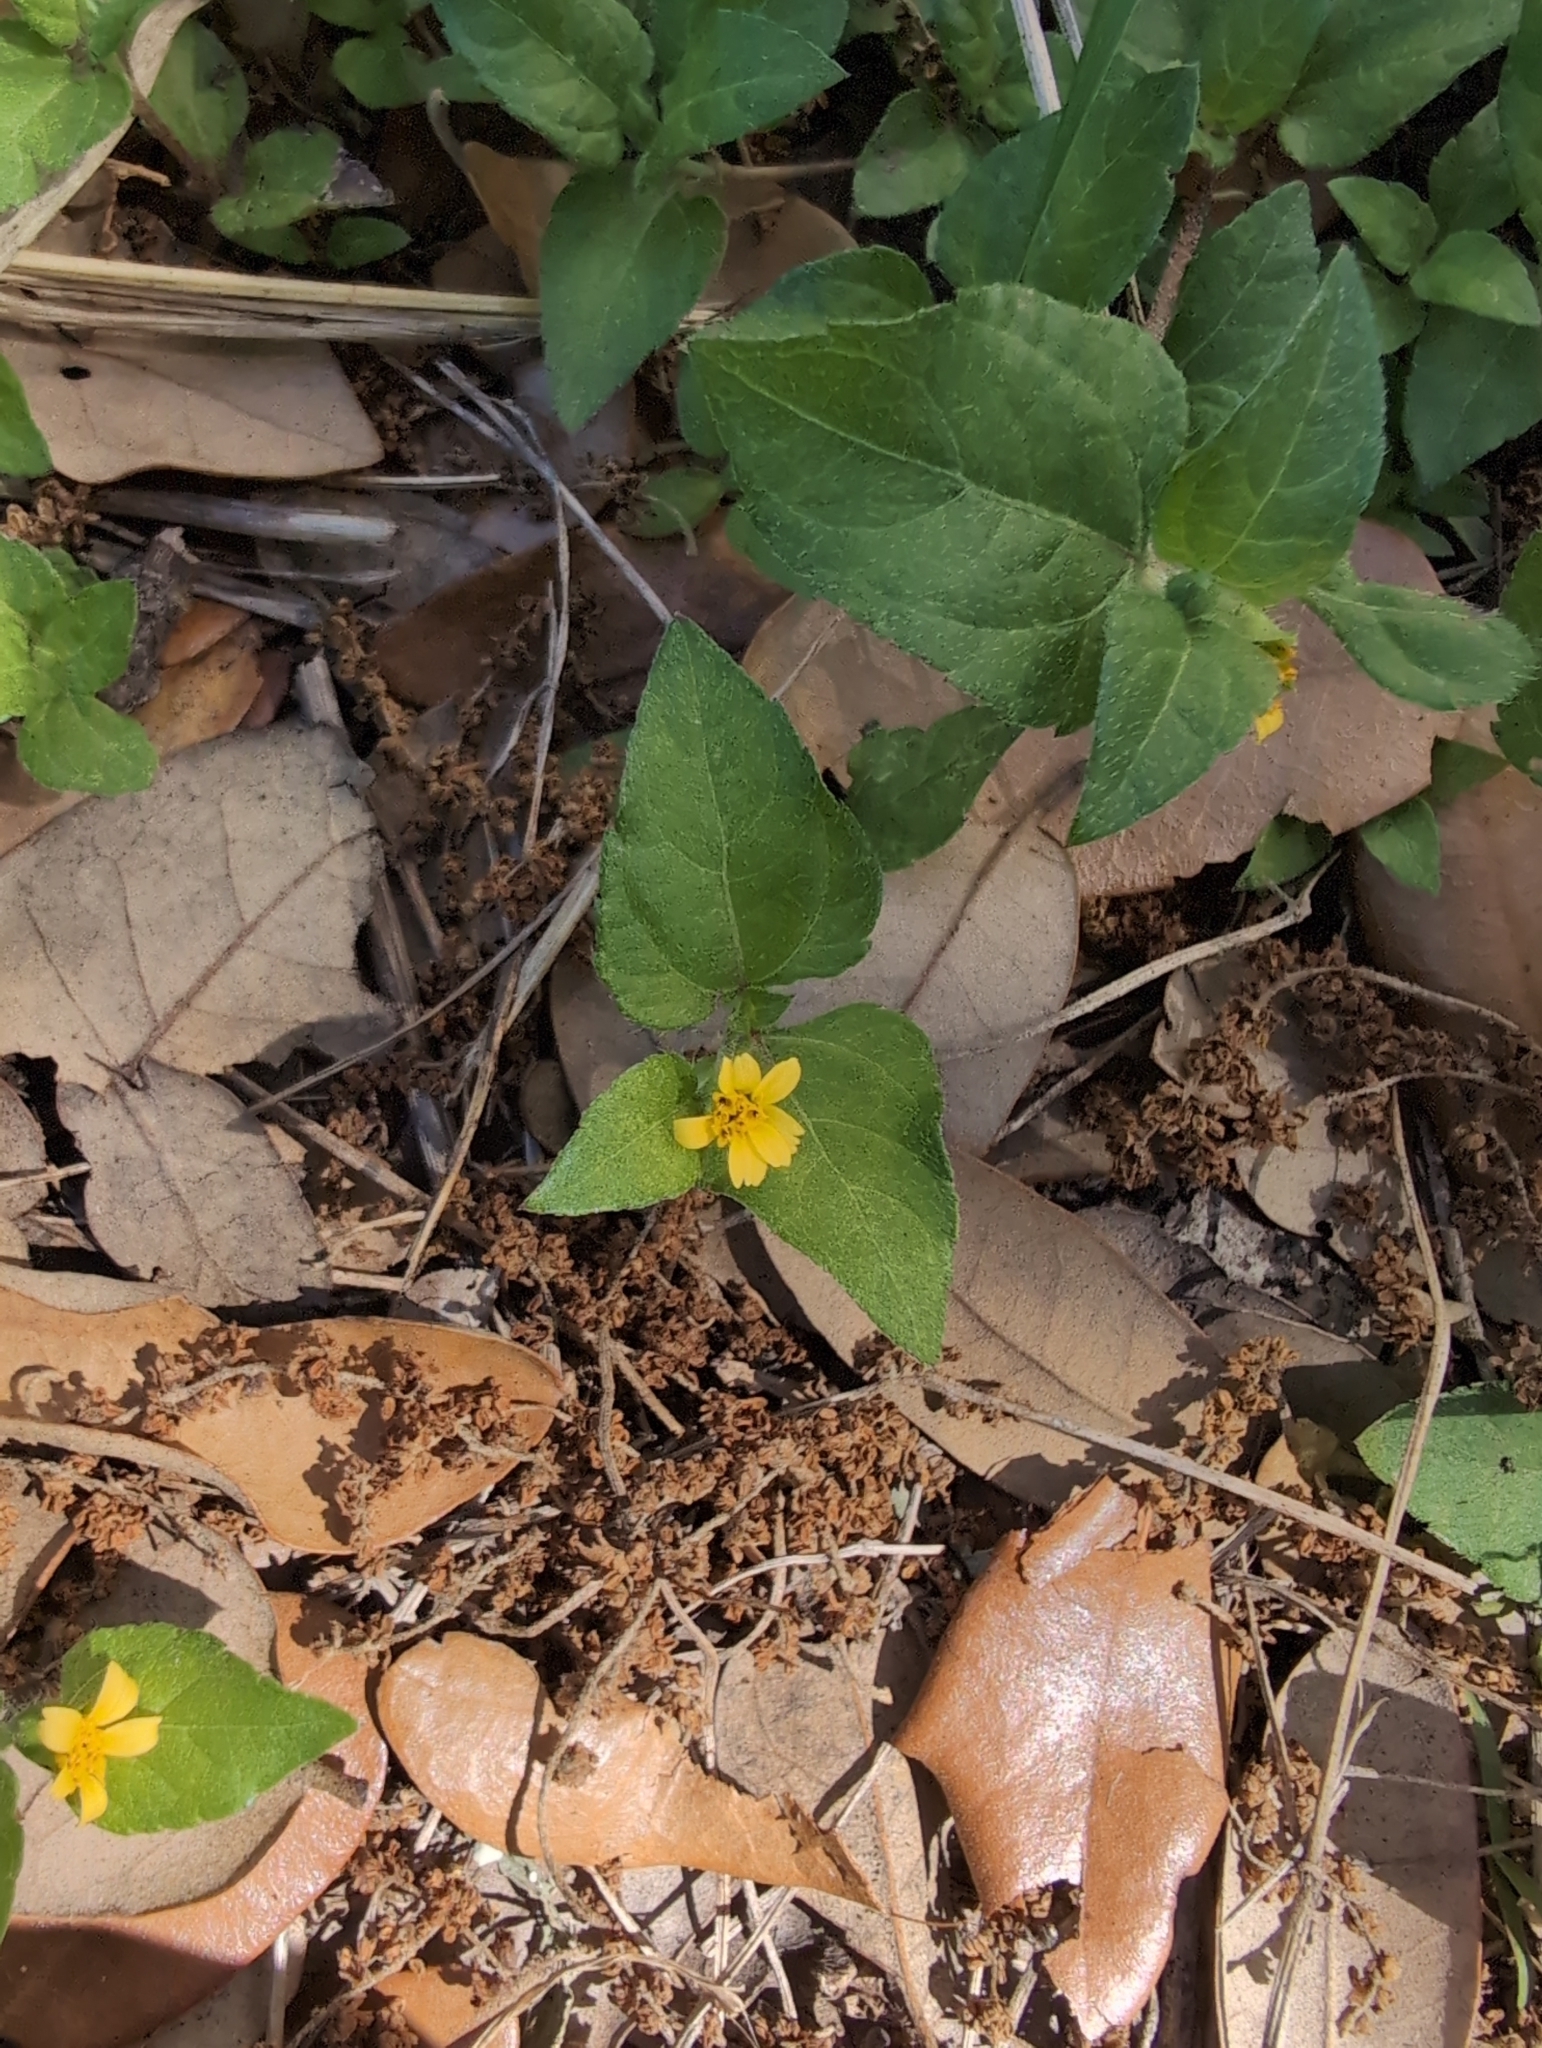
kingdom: Plantae
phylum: Tracheophyta
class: Magnoliopsida
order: Asterales
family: Asteraceae
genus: Calyptocarpus
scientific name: Calyptocarpus vialis
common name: Straggler daisy
